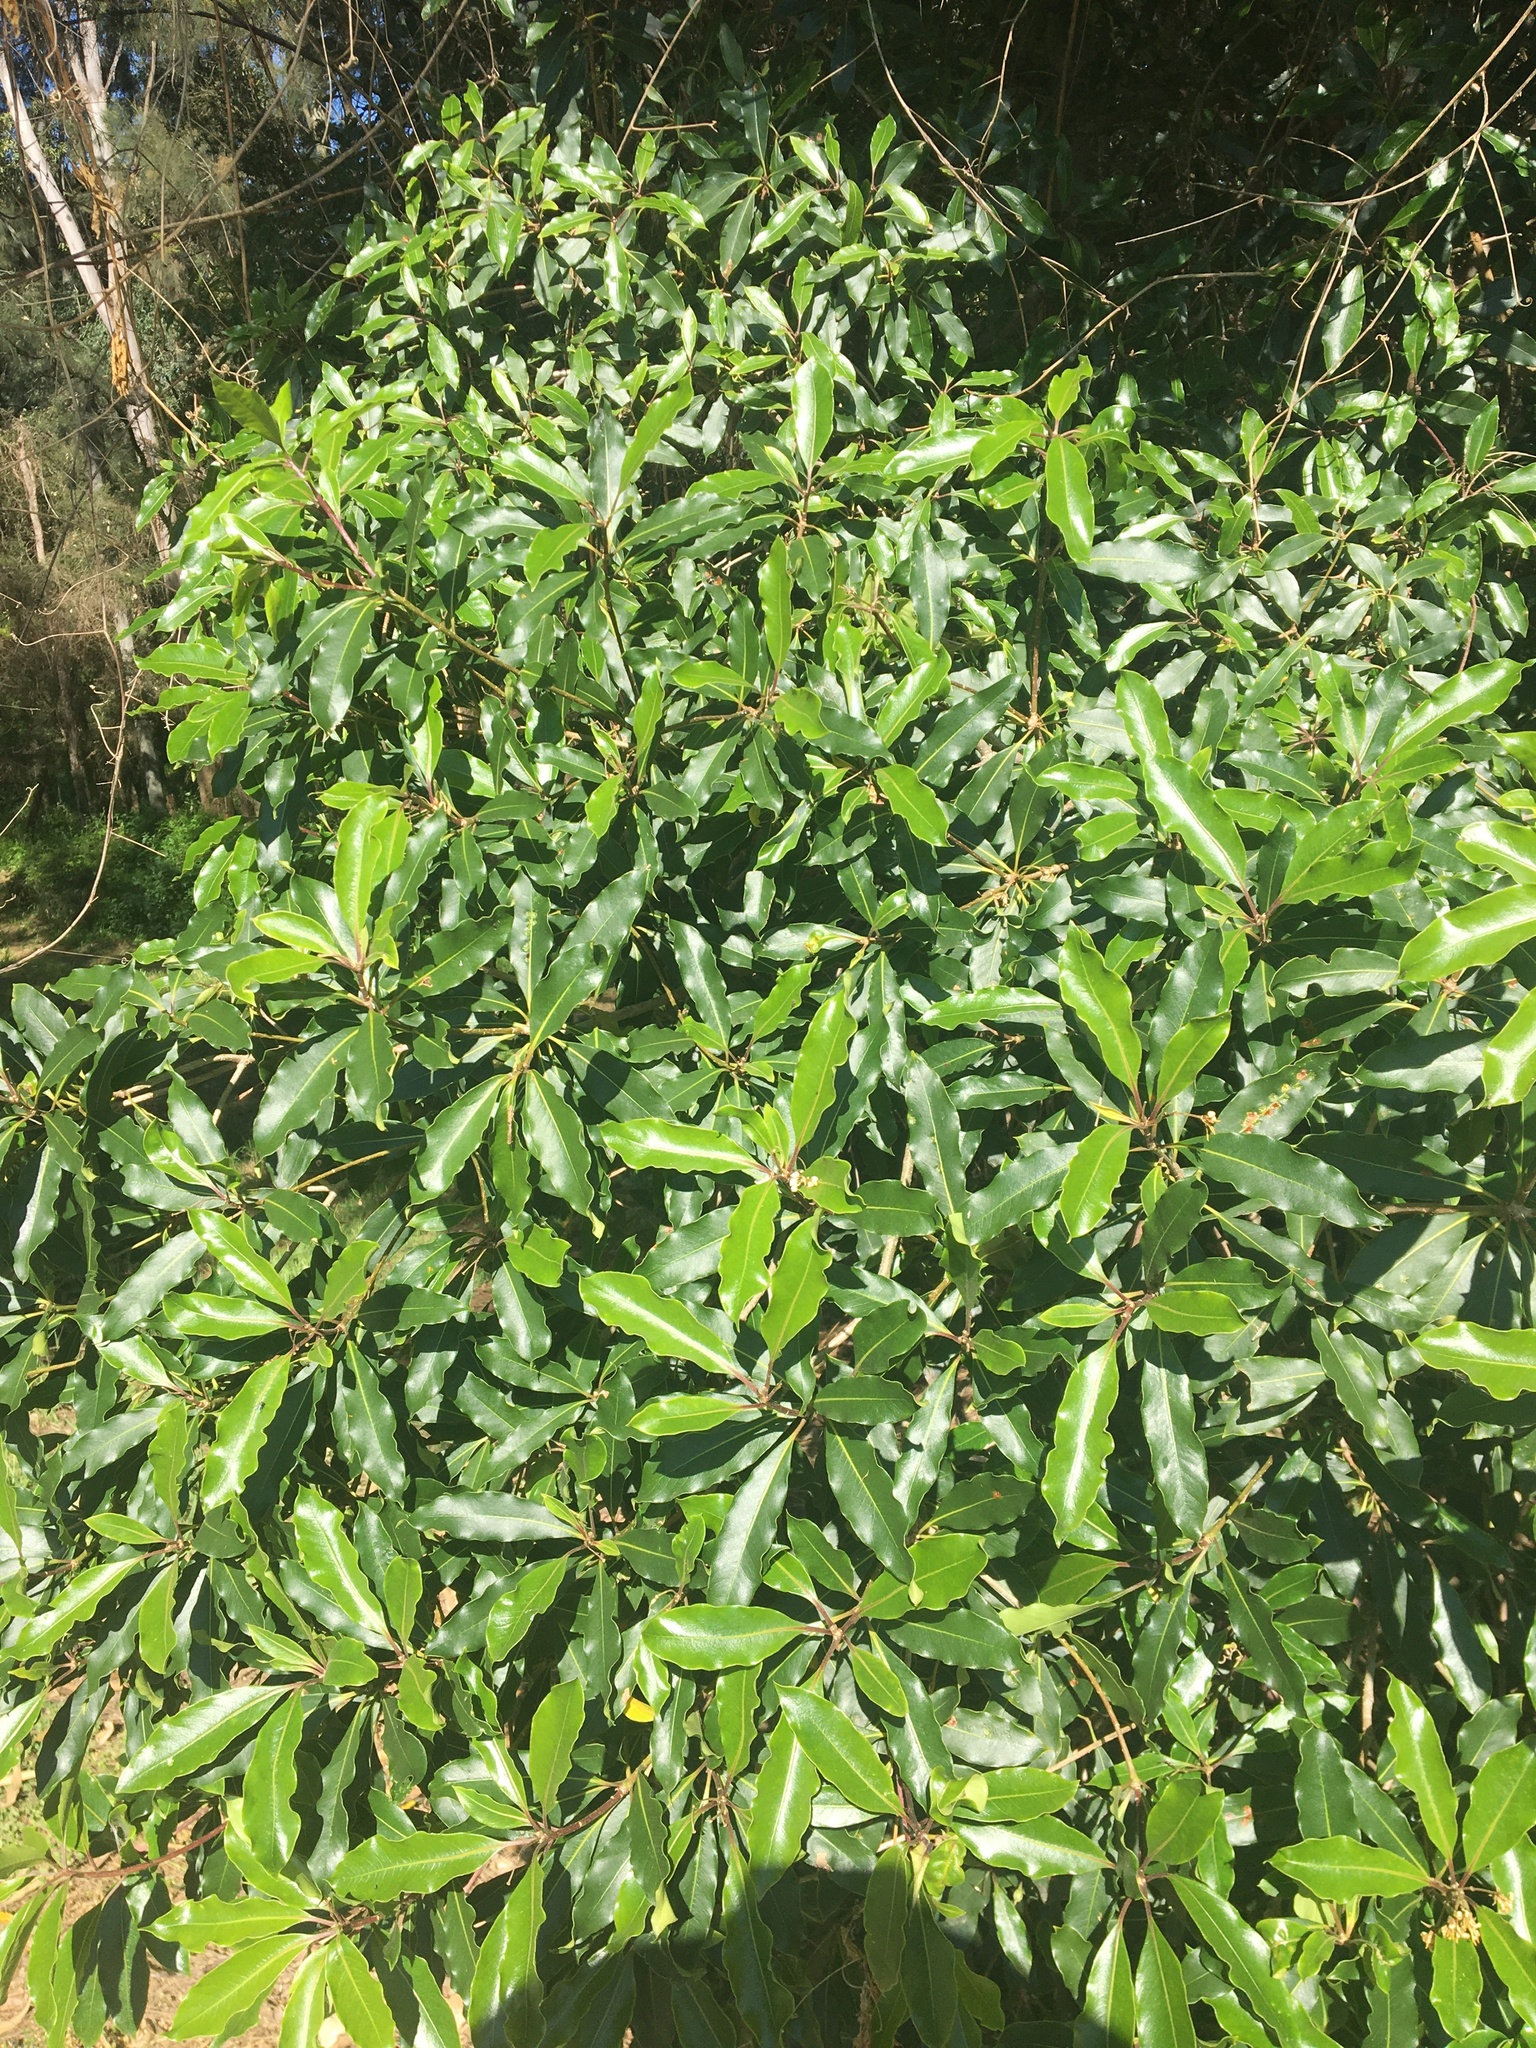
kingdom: Plantae
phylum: Tracheophyta
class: Magnoliopsida
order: Apiales
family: Pittosporaceae
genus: Pittosporum
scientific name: Pittosporum undulatum
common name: Australian cheesewood
